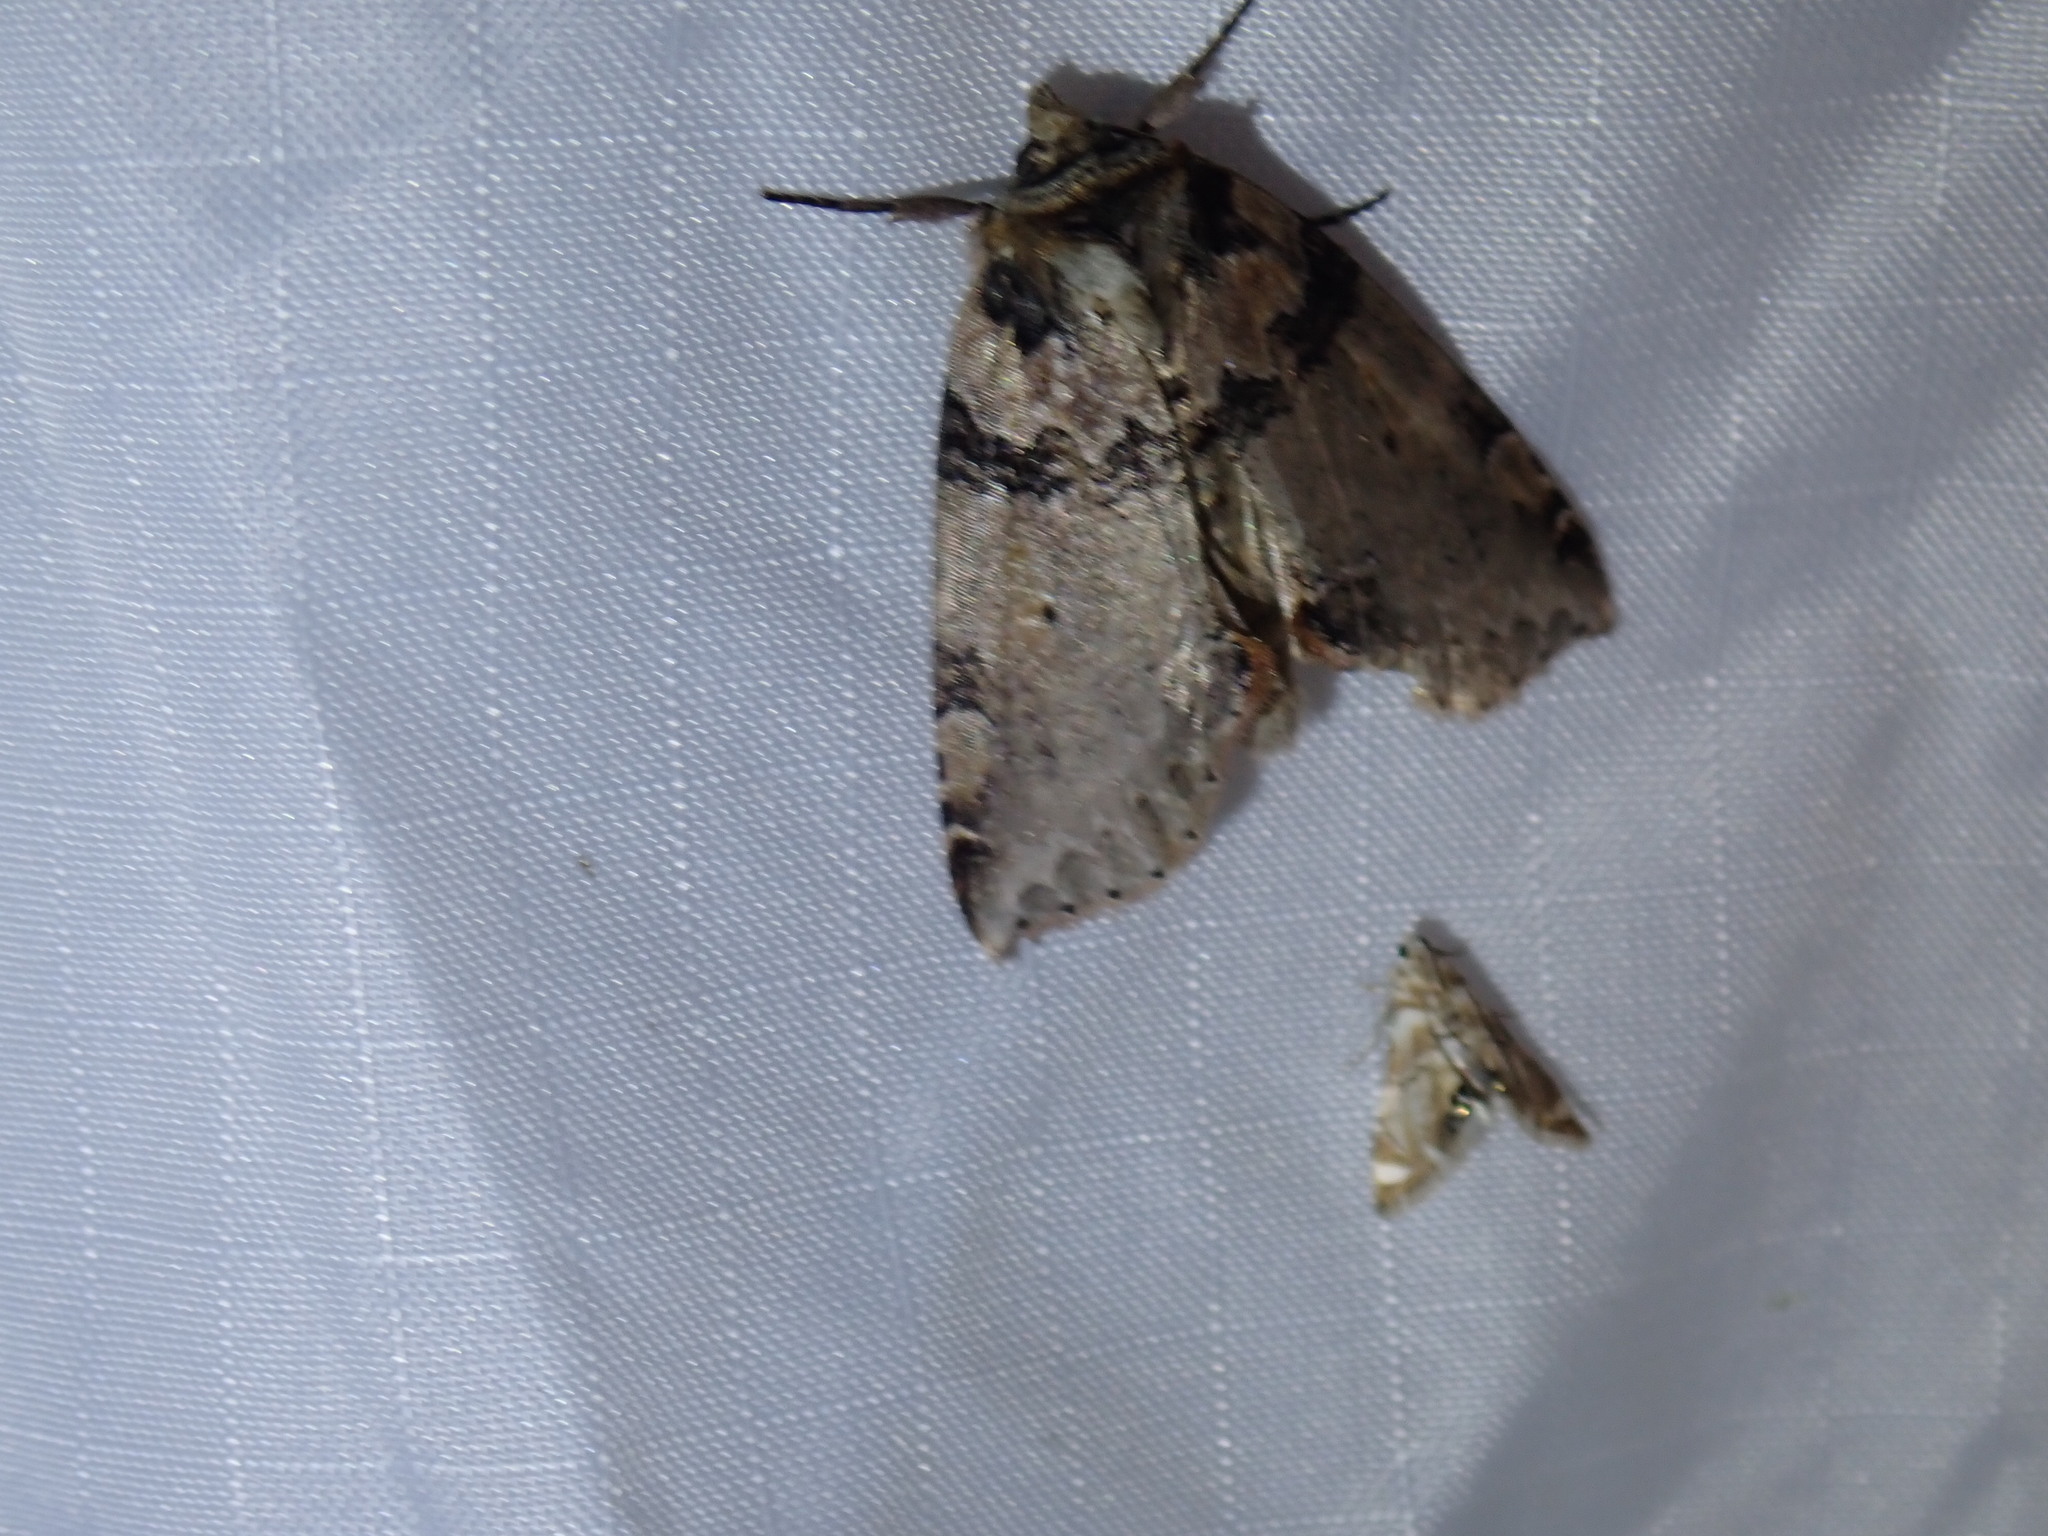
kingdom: Animalia
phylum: Arthropoda
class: Insecta
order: Lepidoptera
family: Drepanidae
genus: Pseudothyatira
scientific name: Pseudothyatira cymatophoroides
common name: Tufted thyatirid moth
